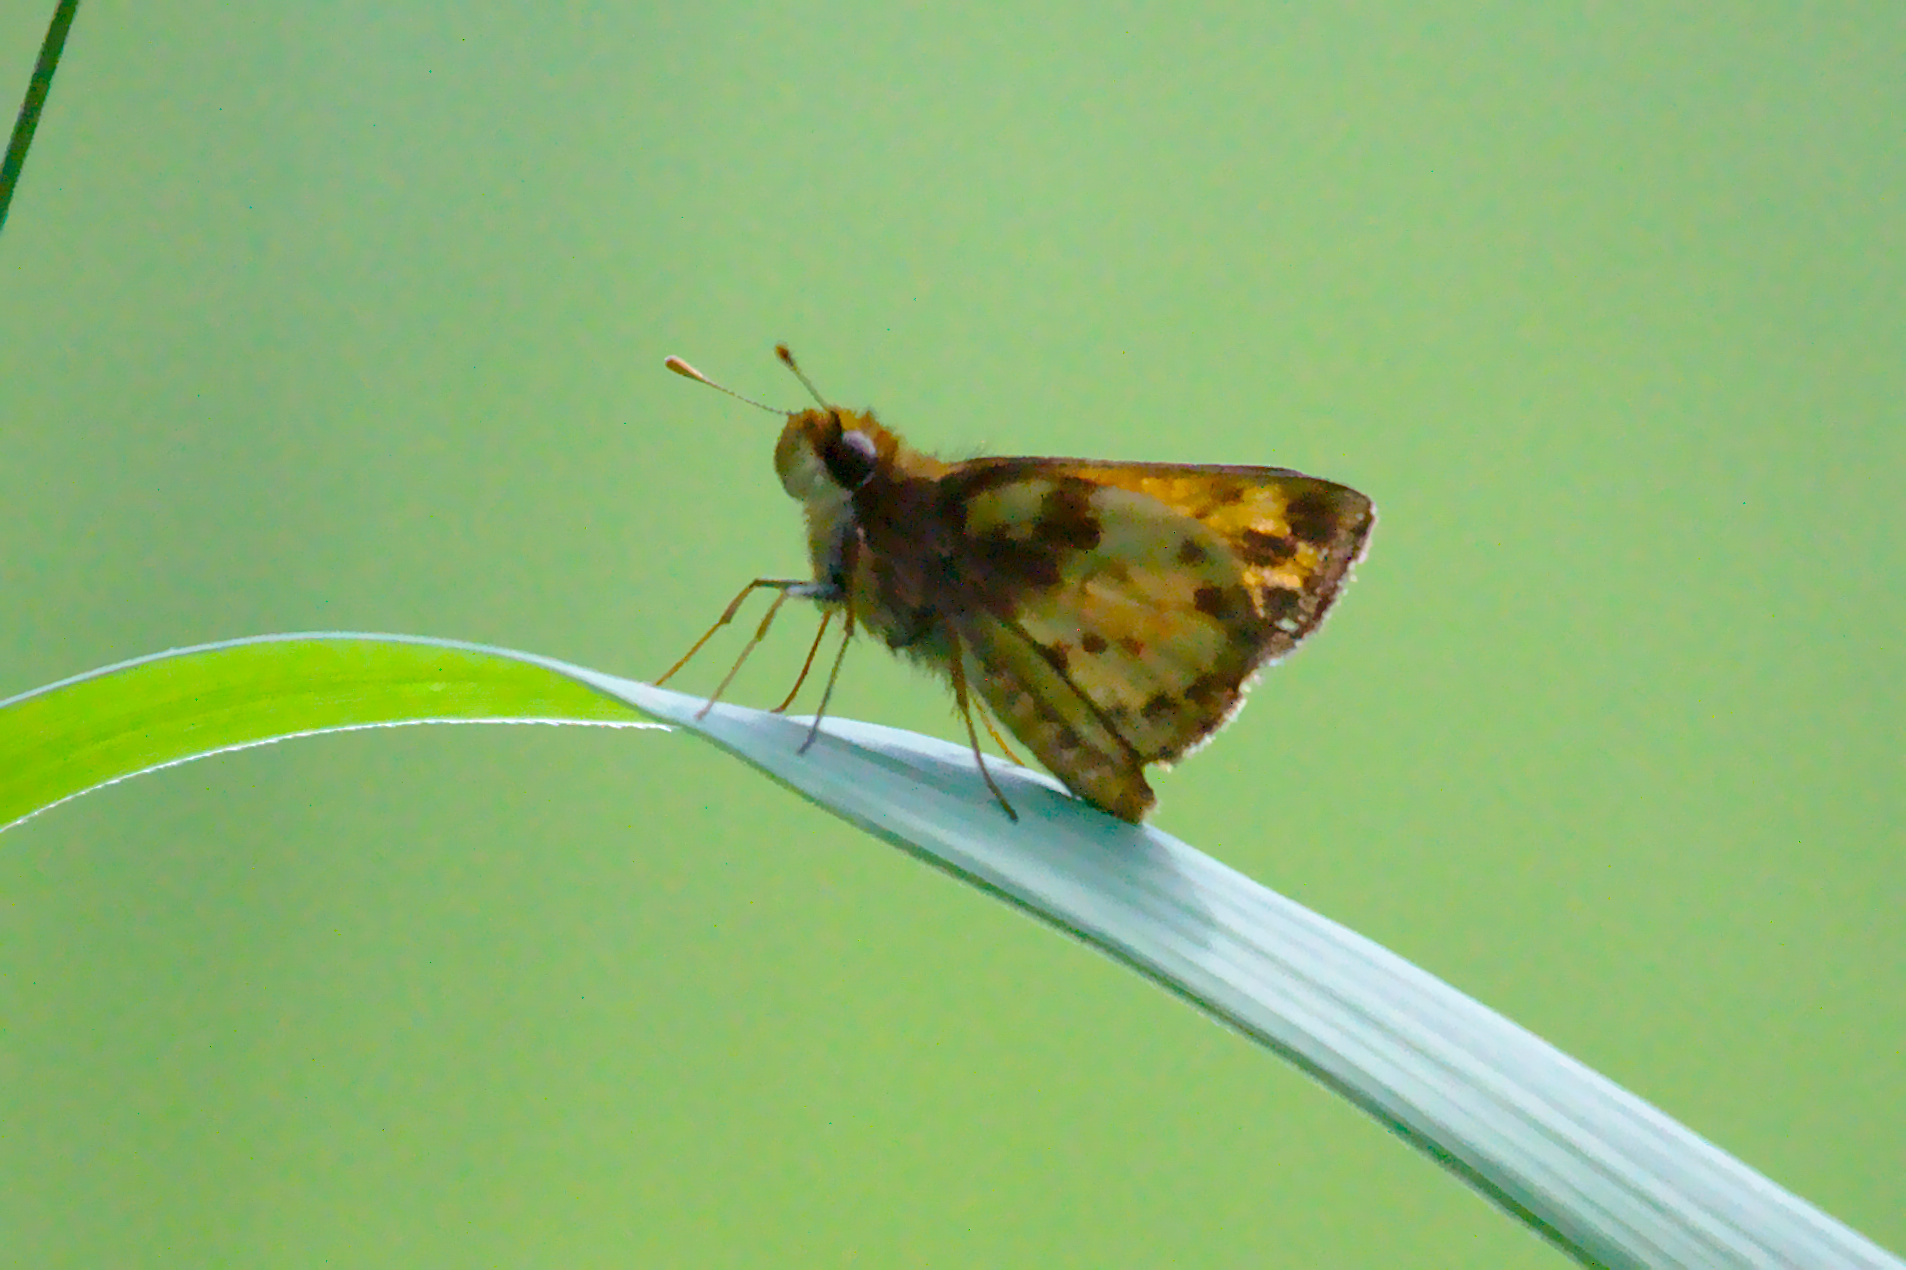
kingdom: Animalia
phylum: Arthropoda
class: Insecta
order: Lepidoptera
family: Hesperiidae
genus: Lon
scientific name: Lon zabulon
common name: Zabulon skipper
